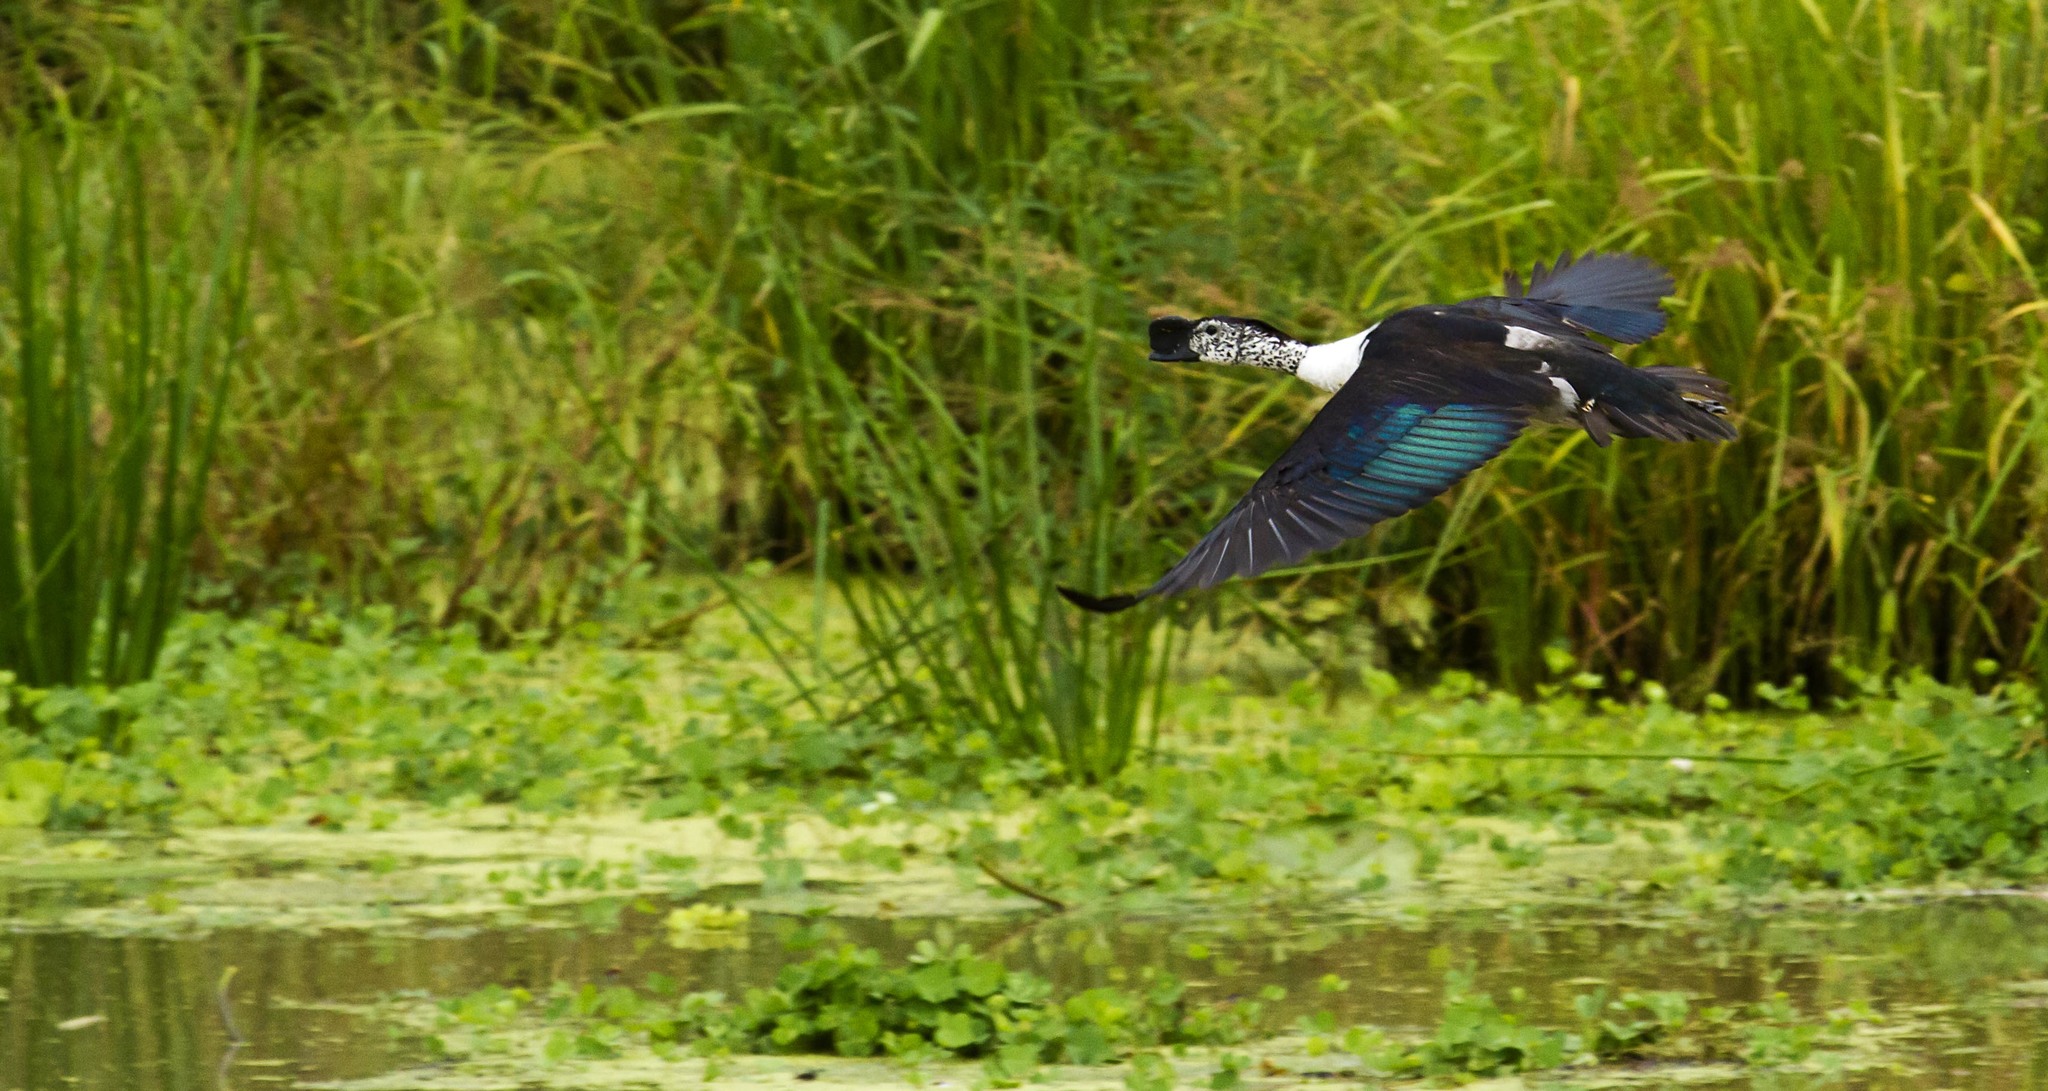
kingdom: Animalia
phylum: Chordata
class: Aves
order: Anseriformes
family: Anatidae
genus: Sarkidiornis
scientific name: Sarkidiornis melanotos
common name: Comb duck
